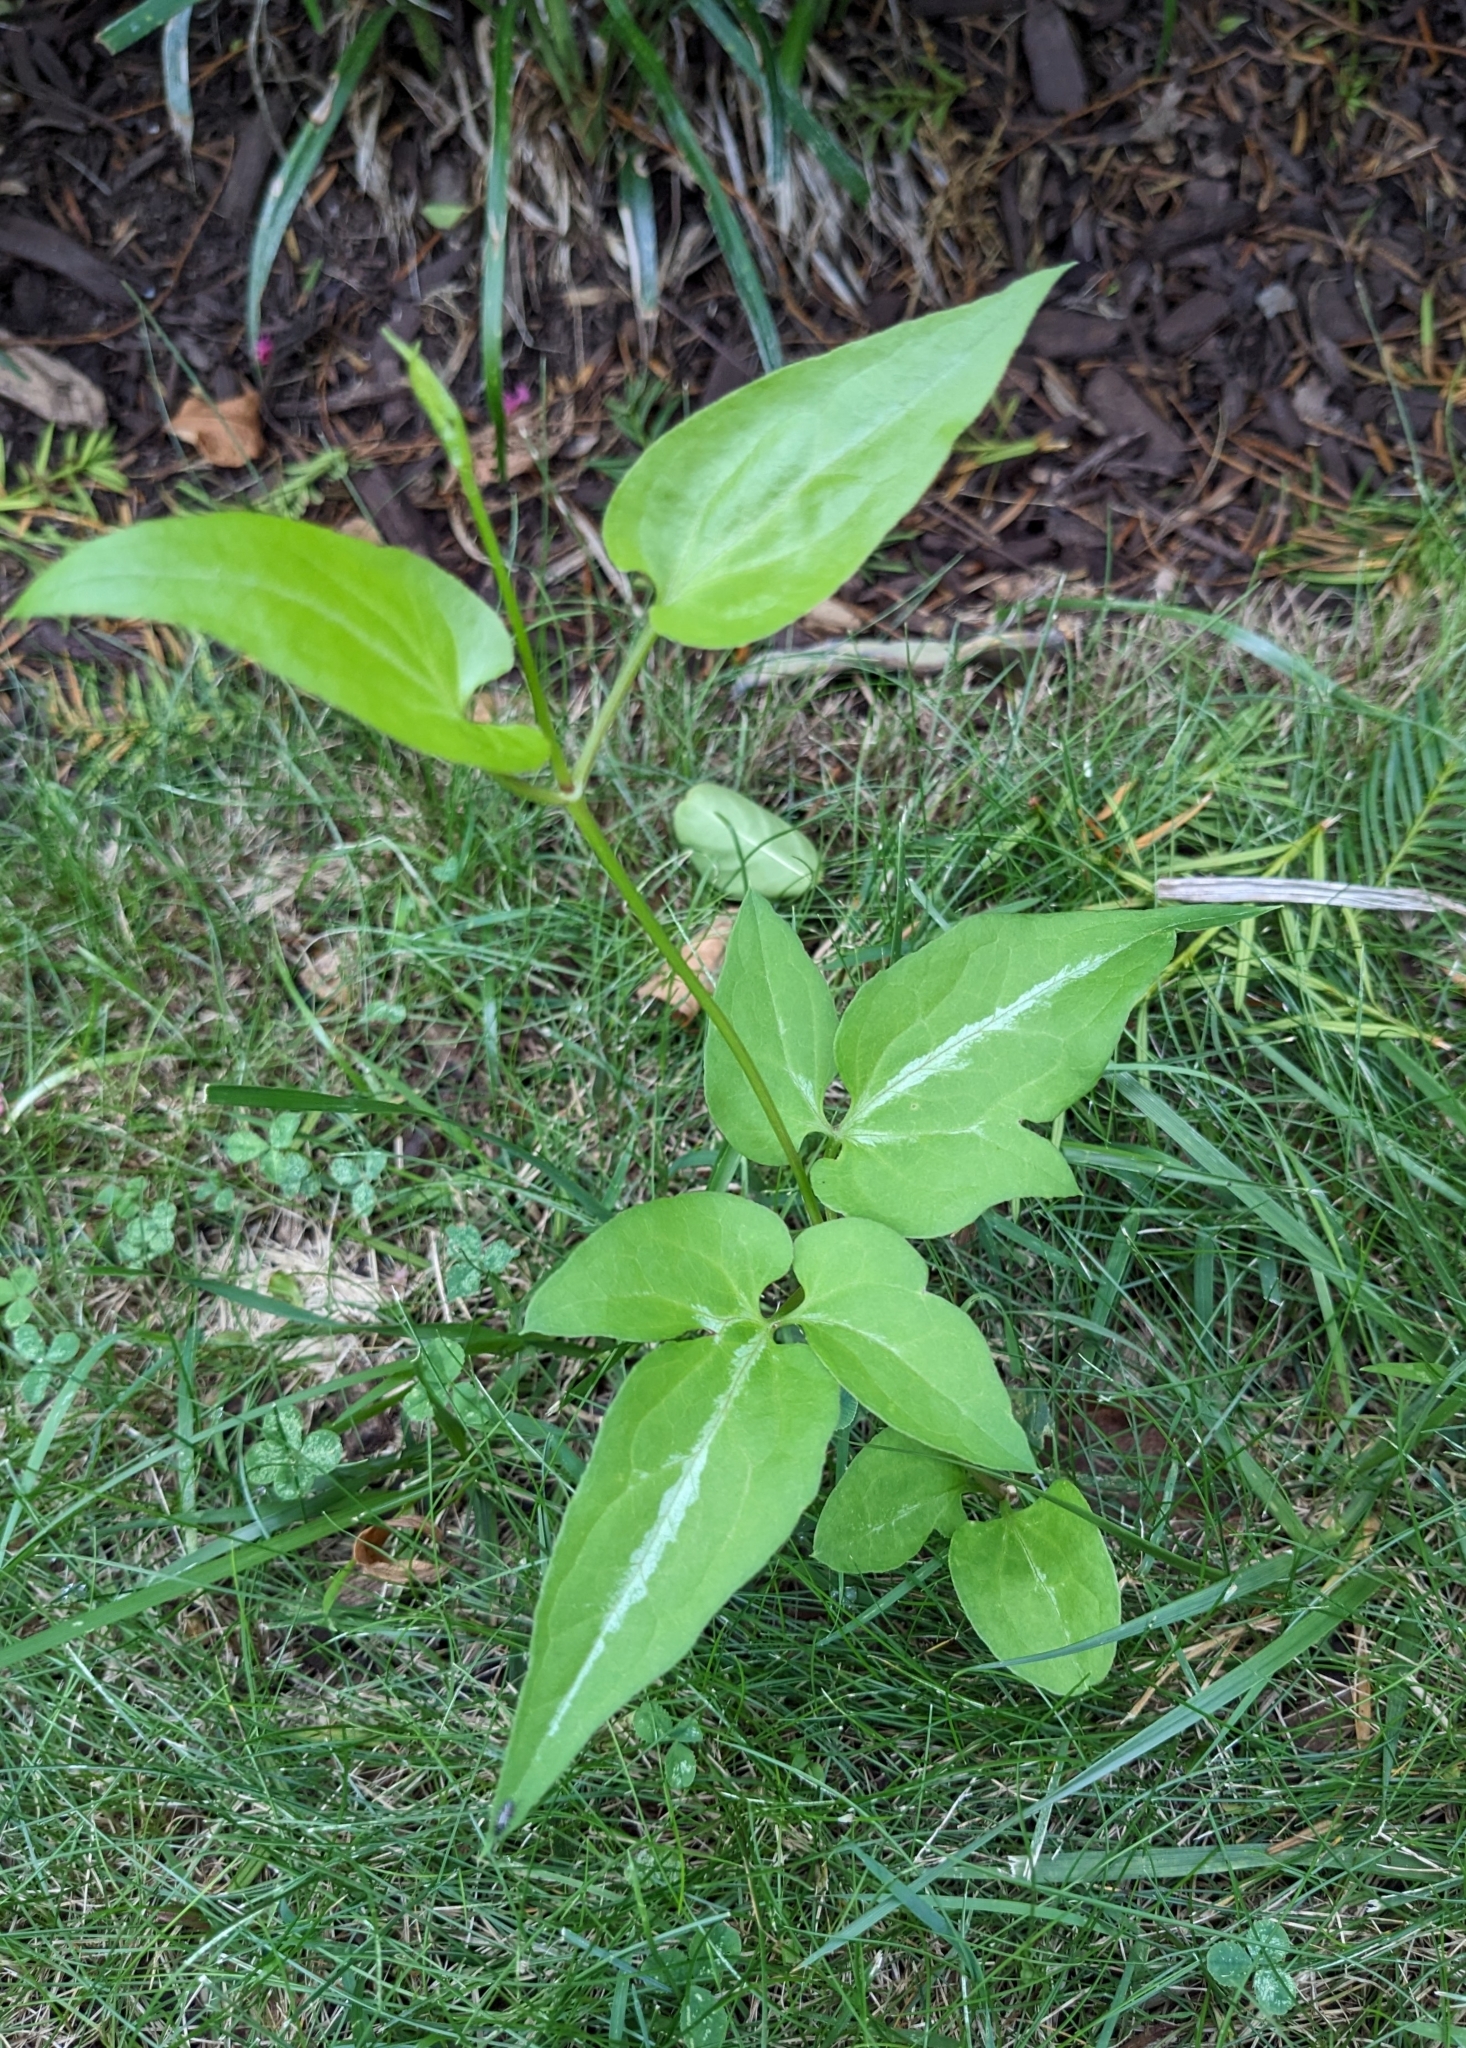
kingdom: Plantae
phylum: Tracheophyta
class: Magnoliopsida
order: Ranunculales
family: Ranunculaceae
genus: Clematis
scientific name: Clematis terniflora
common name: Sweet autumn clematis
